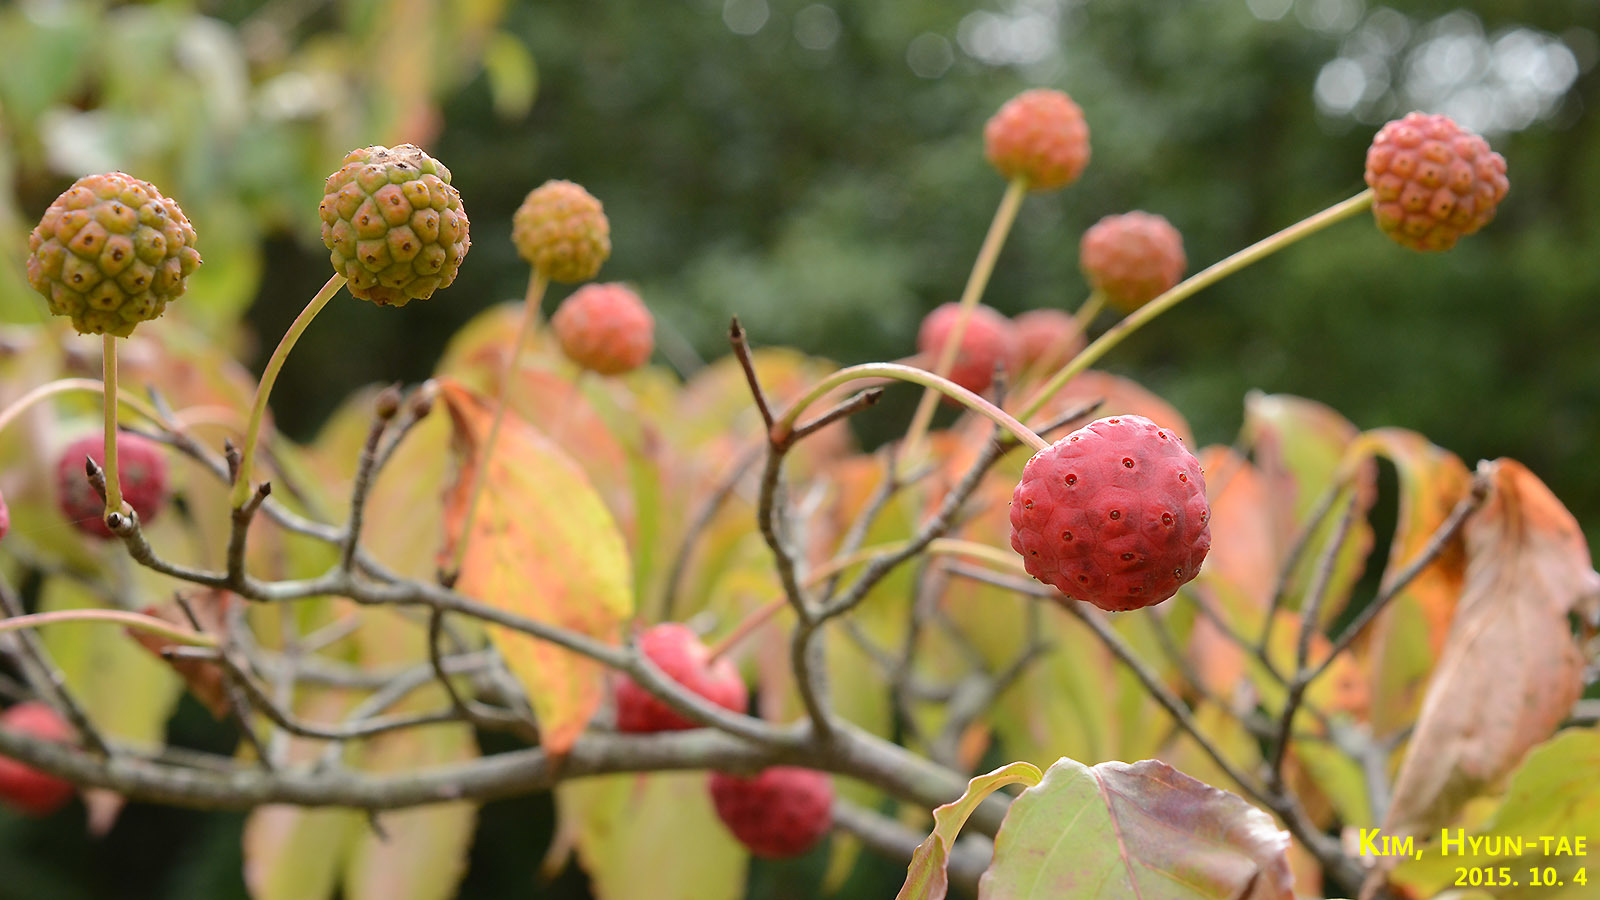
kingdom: Plantae
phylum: Tracheophyta
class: Magnoliopsida
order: Cornales
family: Cornaceae
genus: Cornus
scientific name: Cornus kousa
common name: Japanese dogwood
